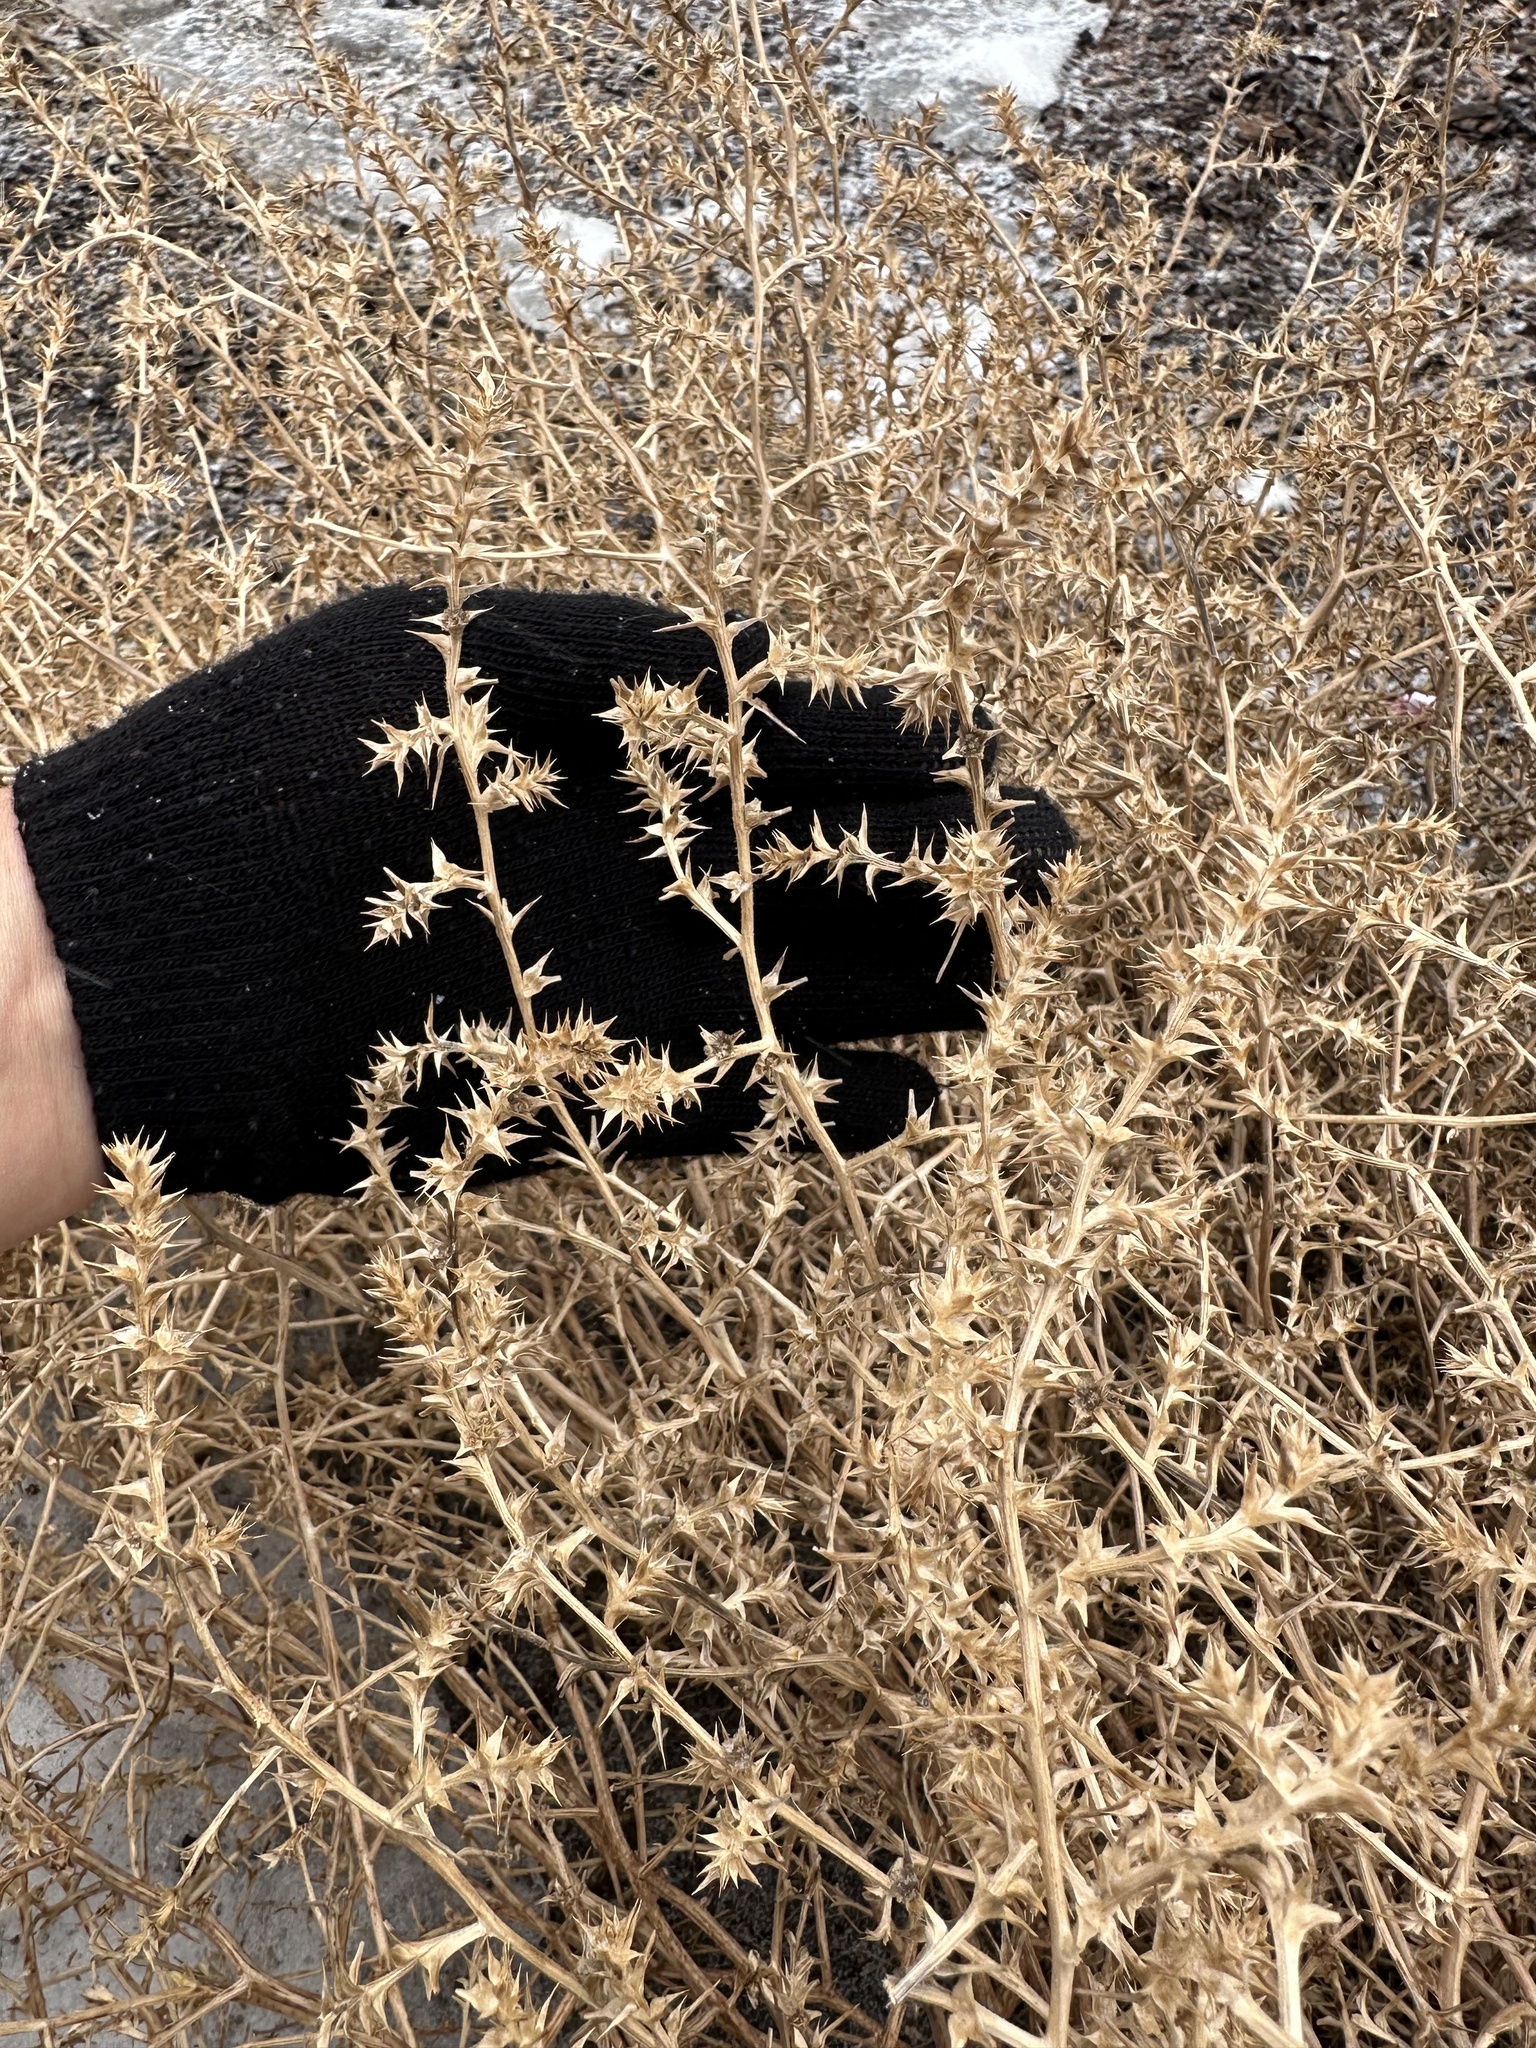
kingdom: Plantae
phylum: Tracheophyta
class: Magnoliopsida
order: Caryophyllales
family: Amaranthaceae
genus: Salsola
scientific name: Salsola tragus
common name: Prickly russian thistle
